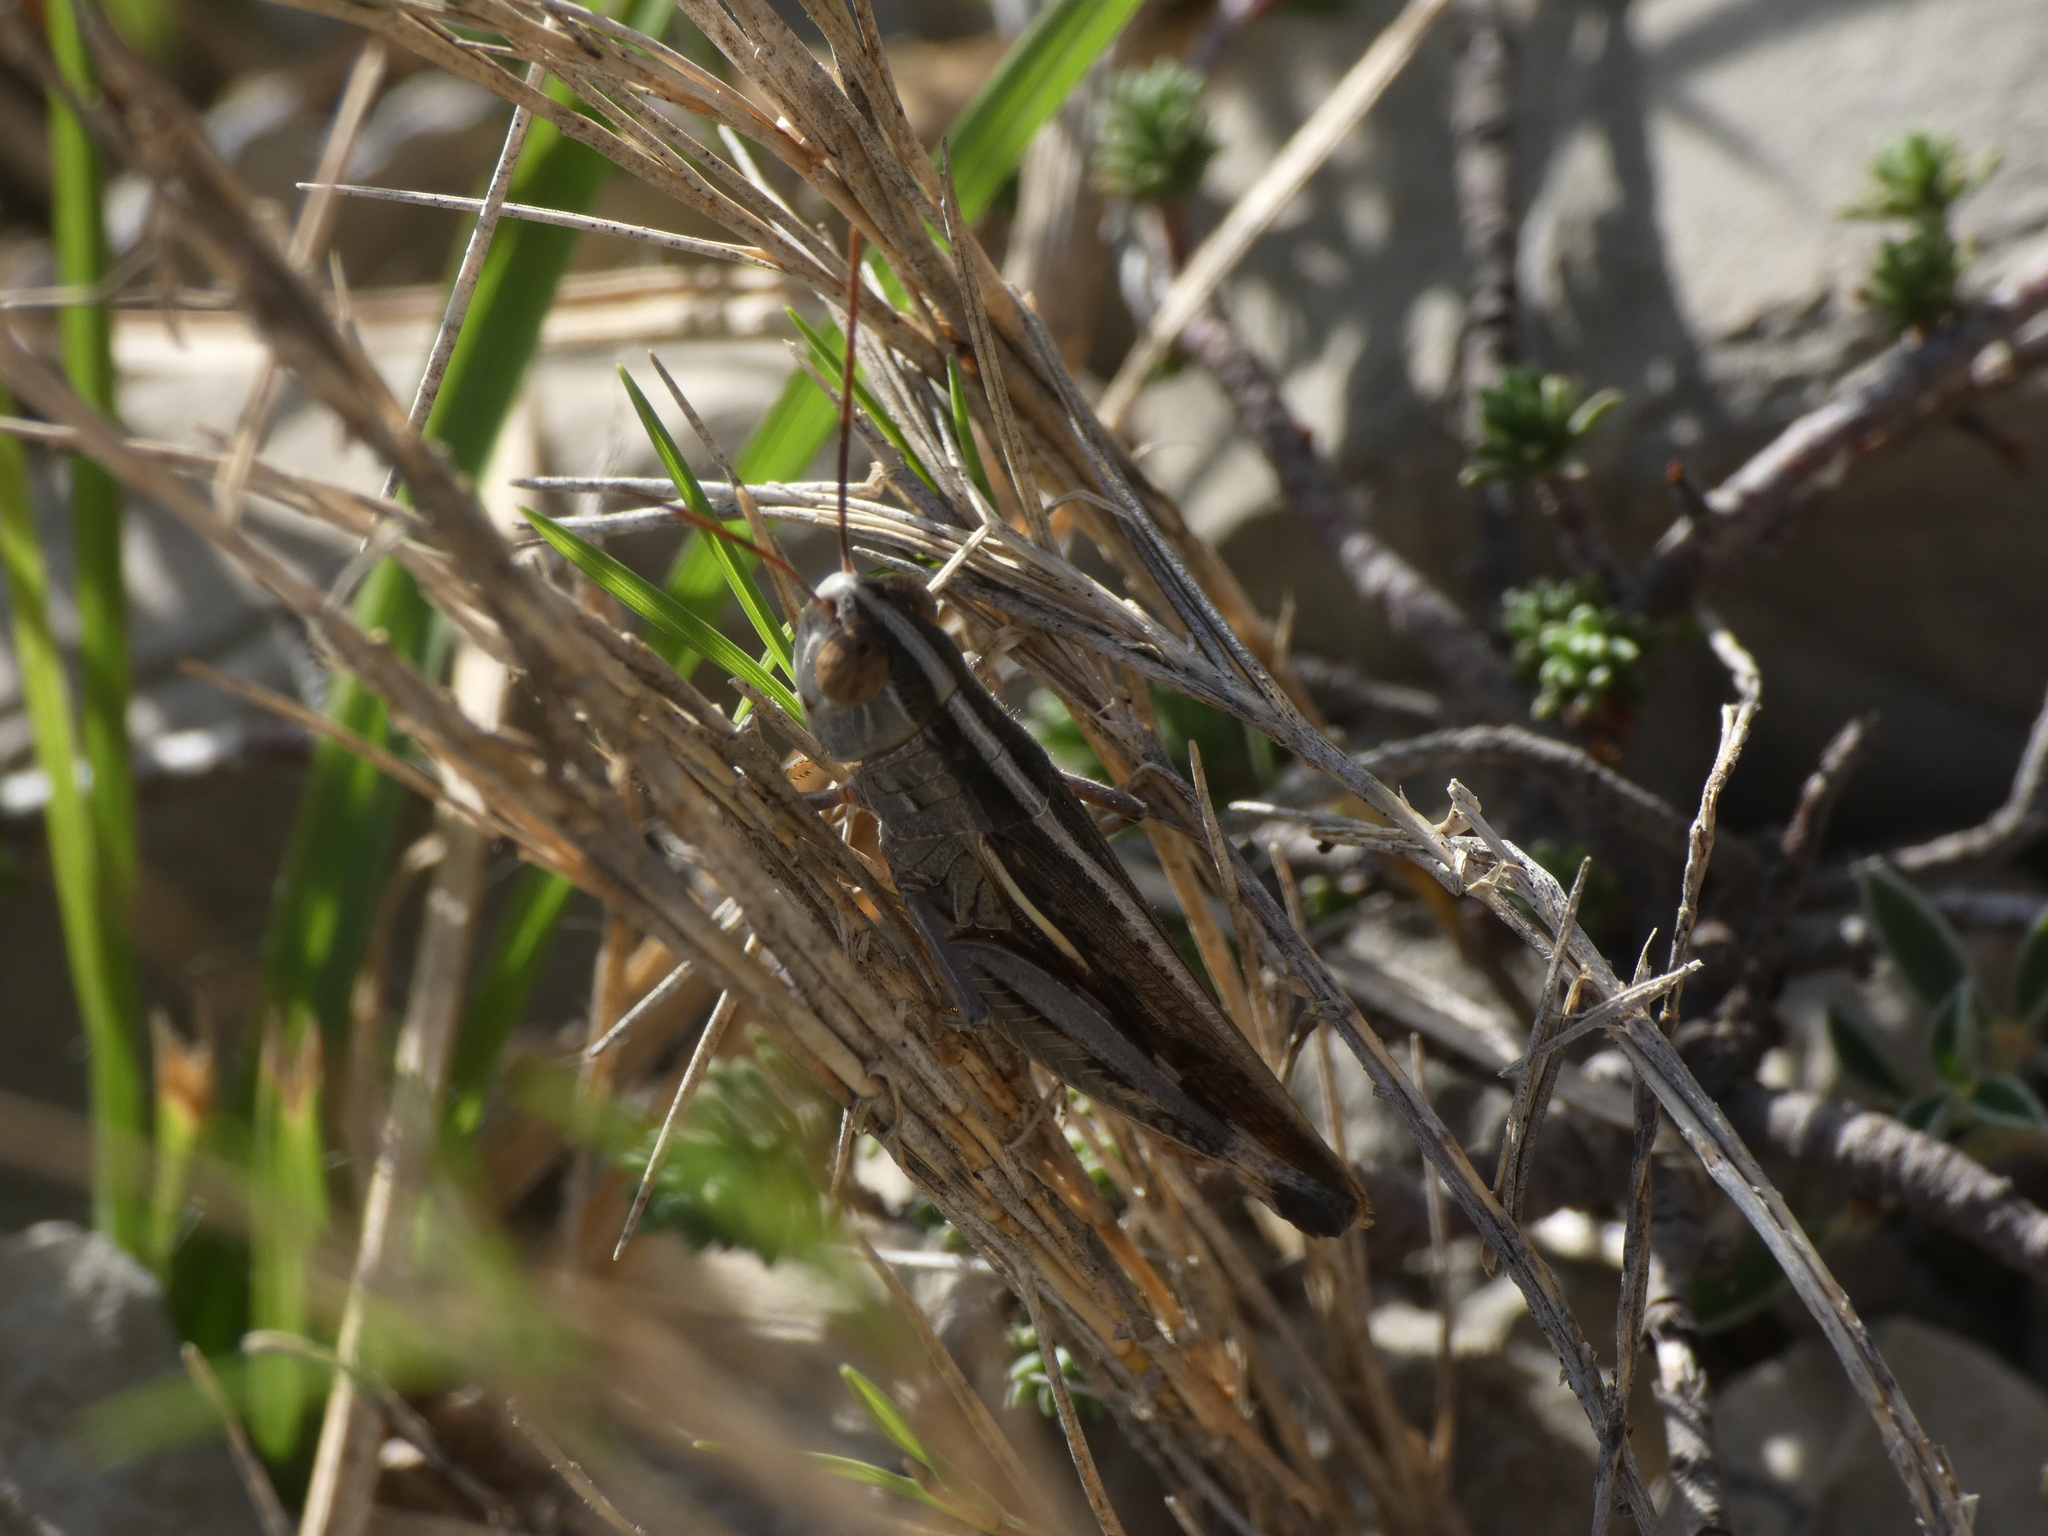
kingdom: Animalia
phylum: Arthropoda
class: Insecta
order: Orthoptera
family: Acrididae
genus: Ramburiella
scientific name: Ramburiella hispanica
